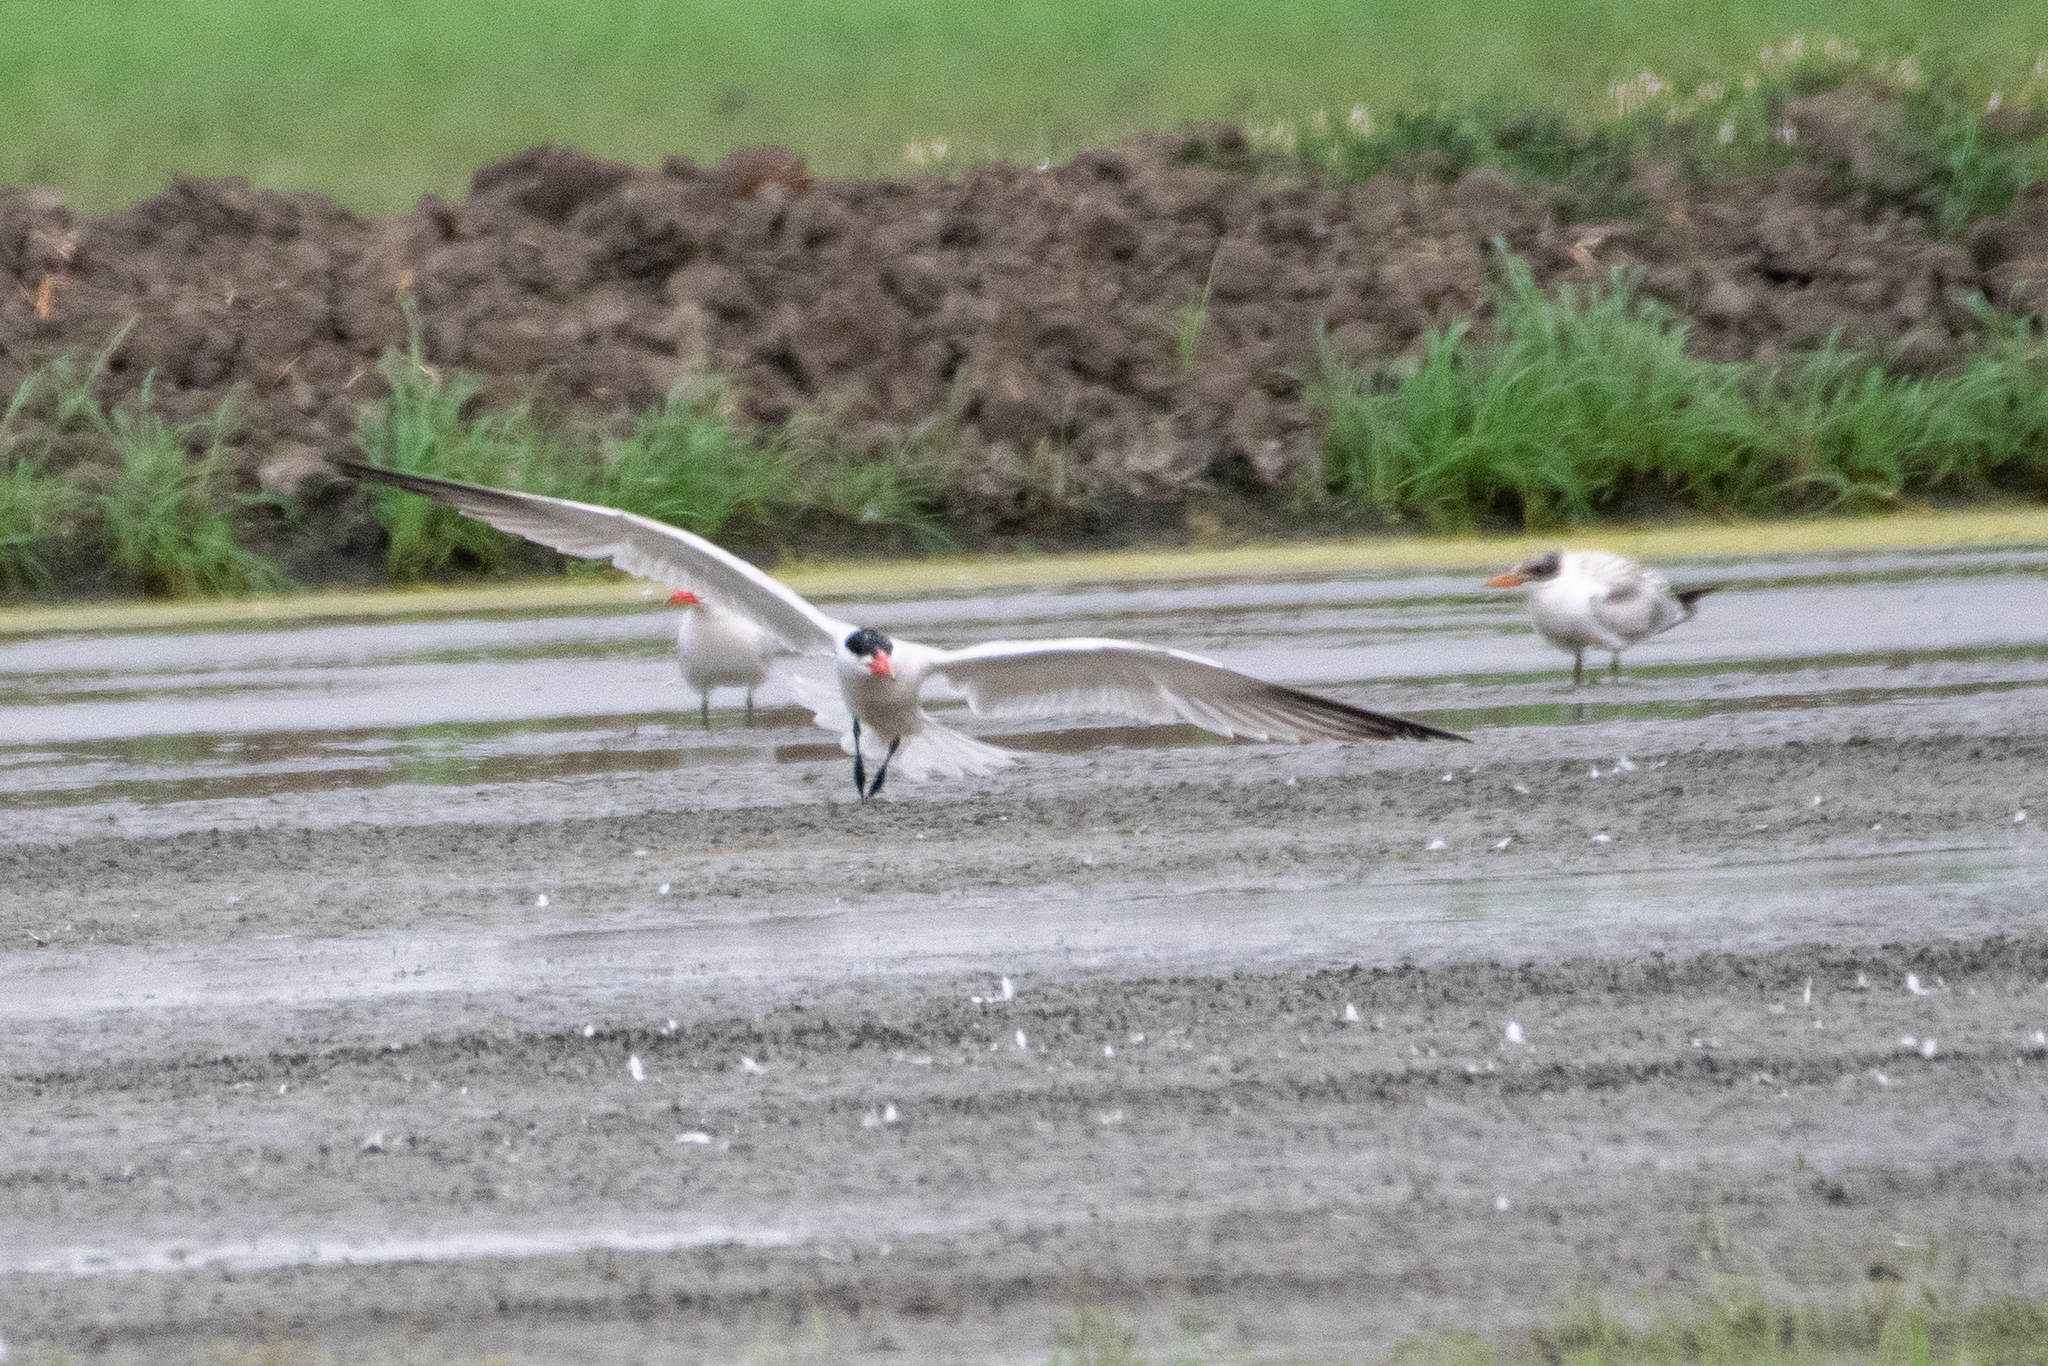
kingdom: Animalia
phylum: Chordata
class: Aves
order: Charadriiformes
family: Laridae
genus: Hydroprogne
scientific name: Hydroprogne caspia
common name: Caspian tern
